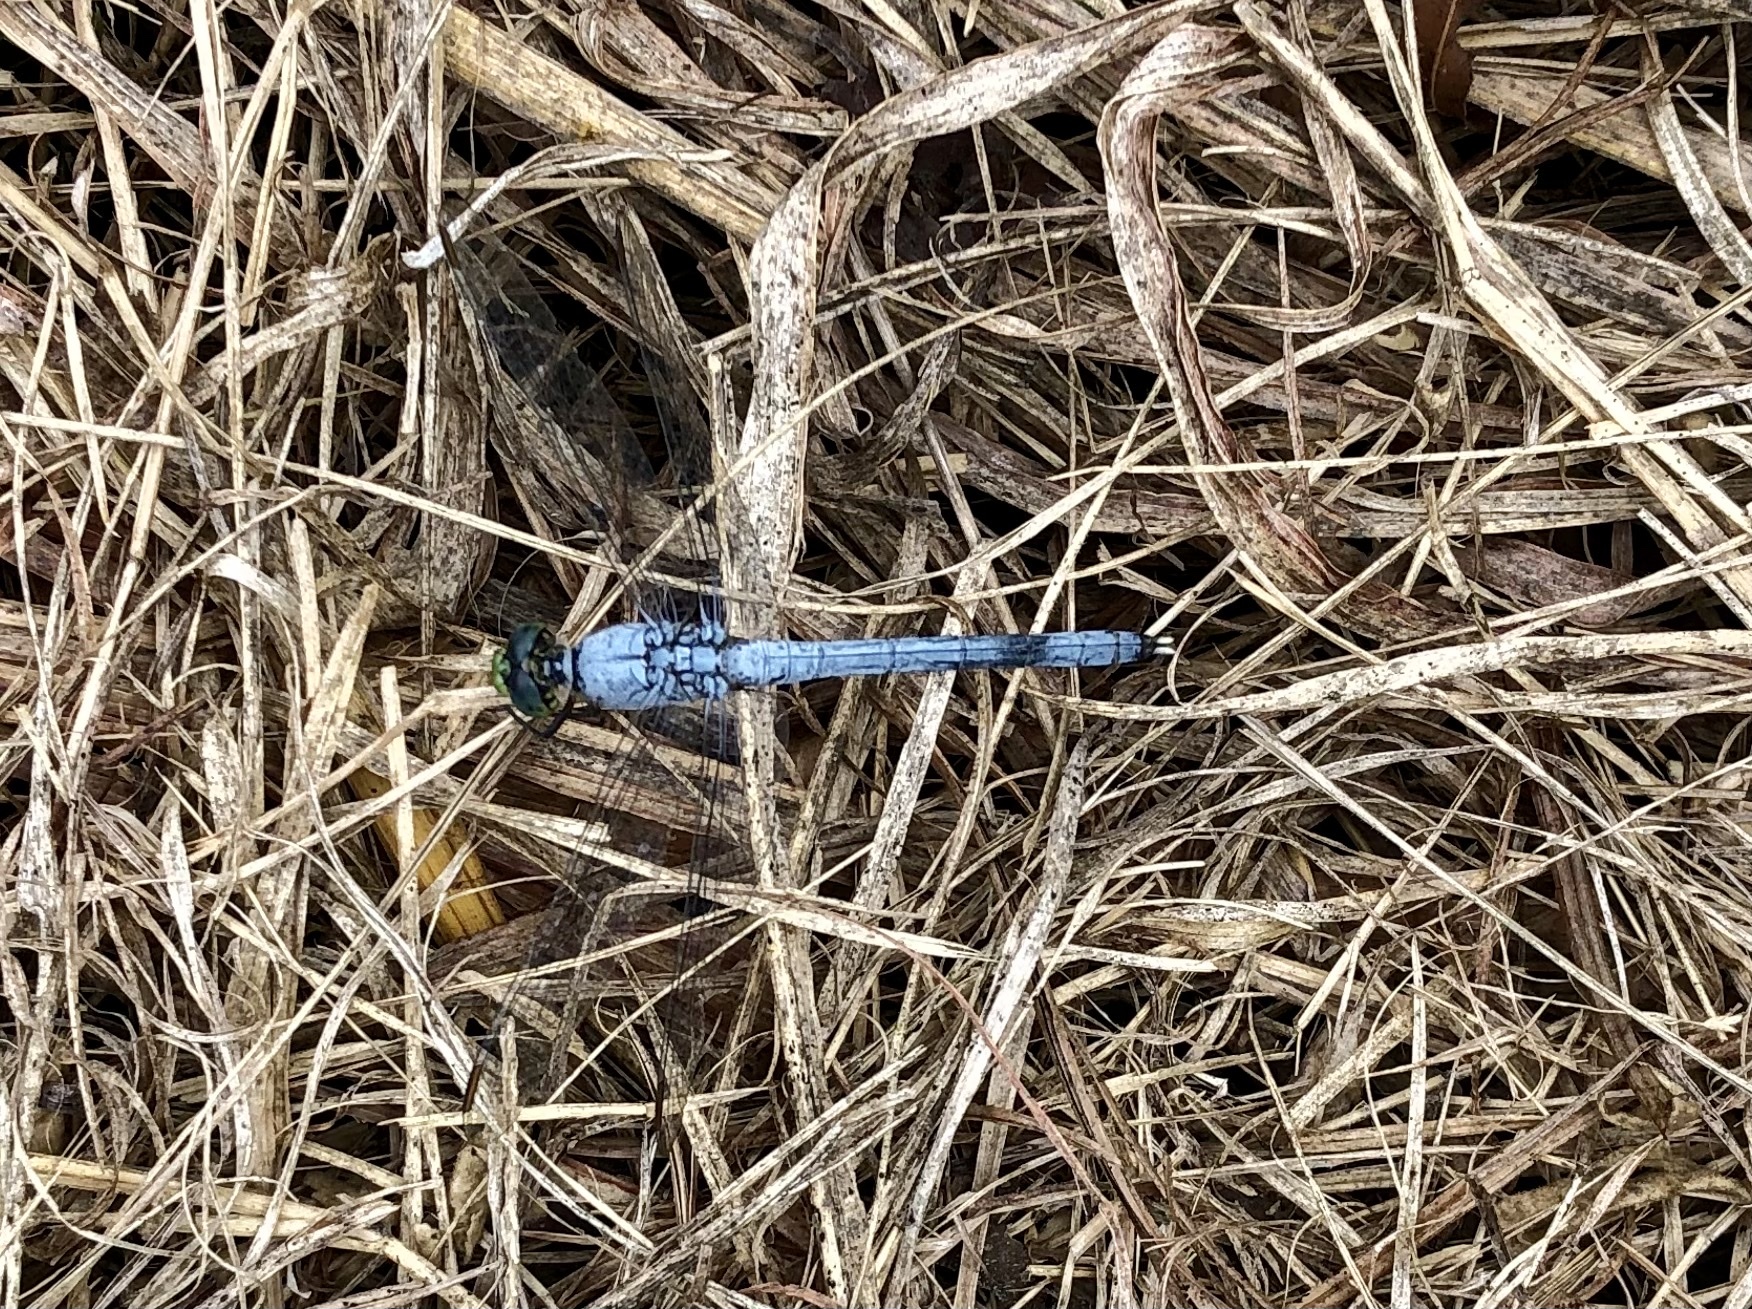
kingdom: Animalia
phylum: Arthropoda
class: Insecta
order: Odonata
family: Libellulidae
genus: Erythemis
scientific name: Erythemis simplicicollis
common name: Eastern pondhawk
